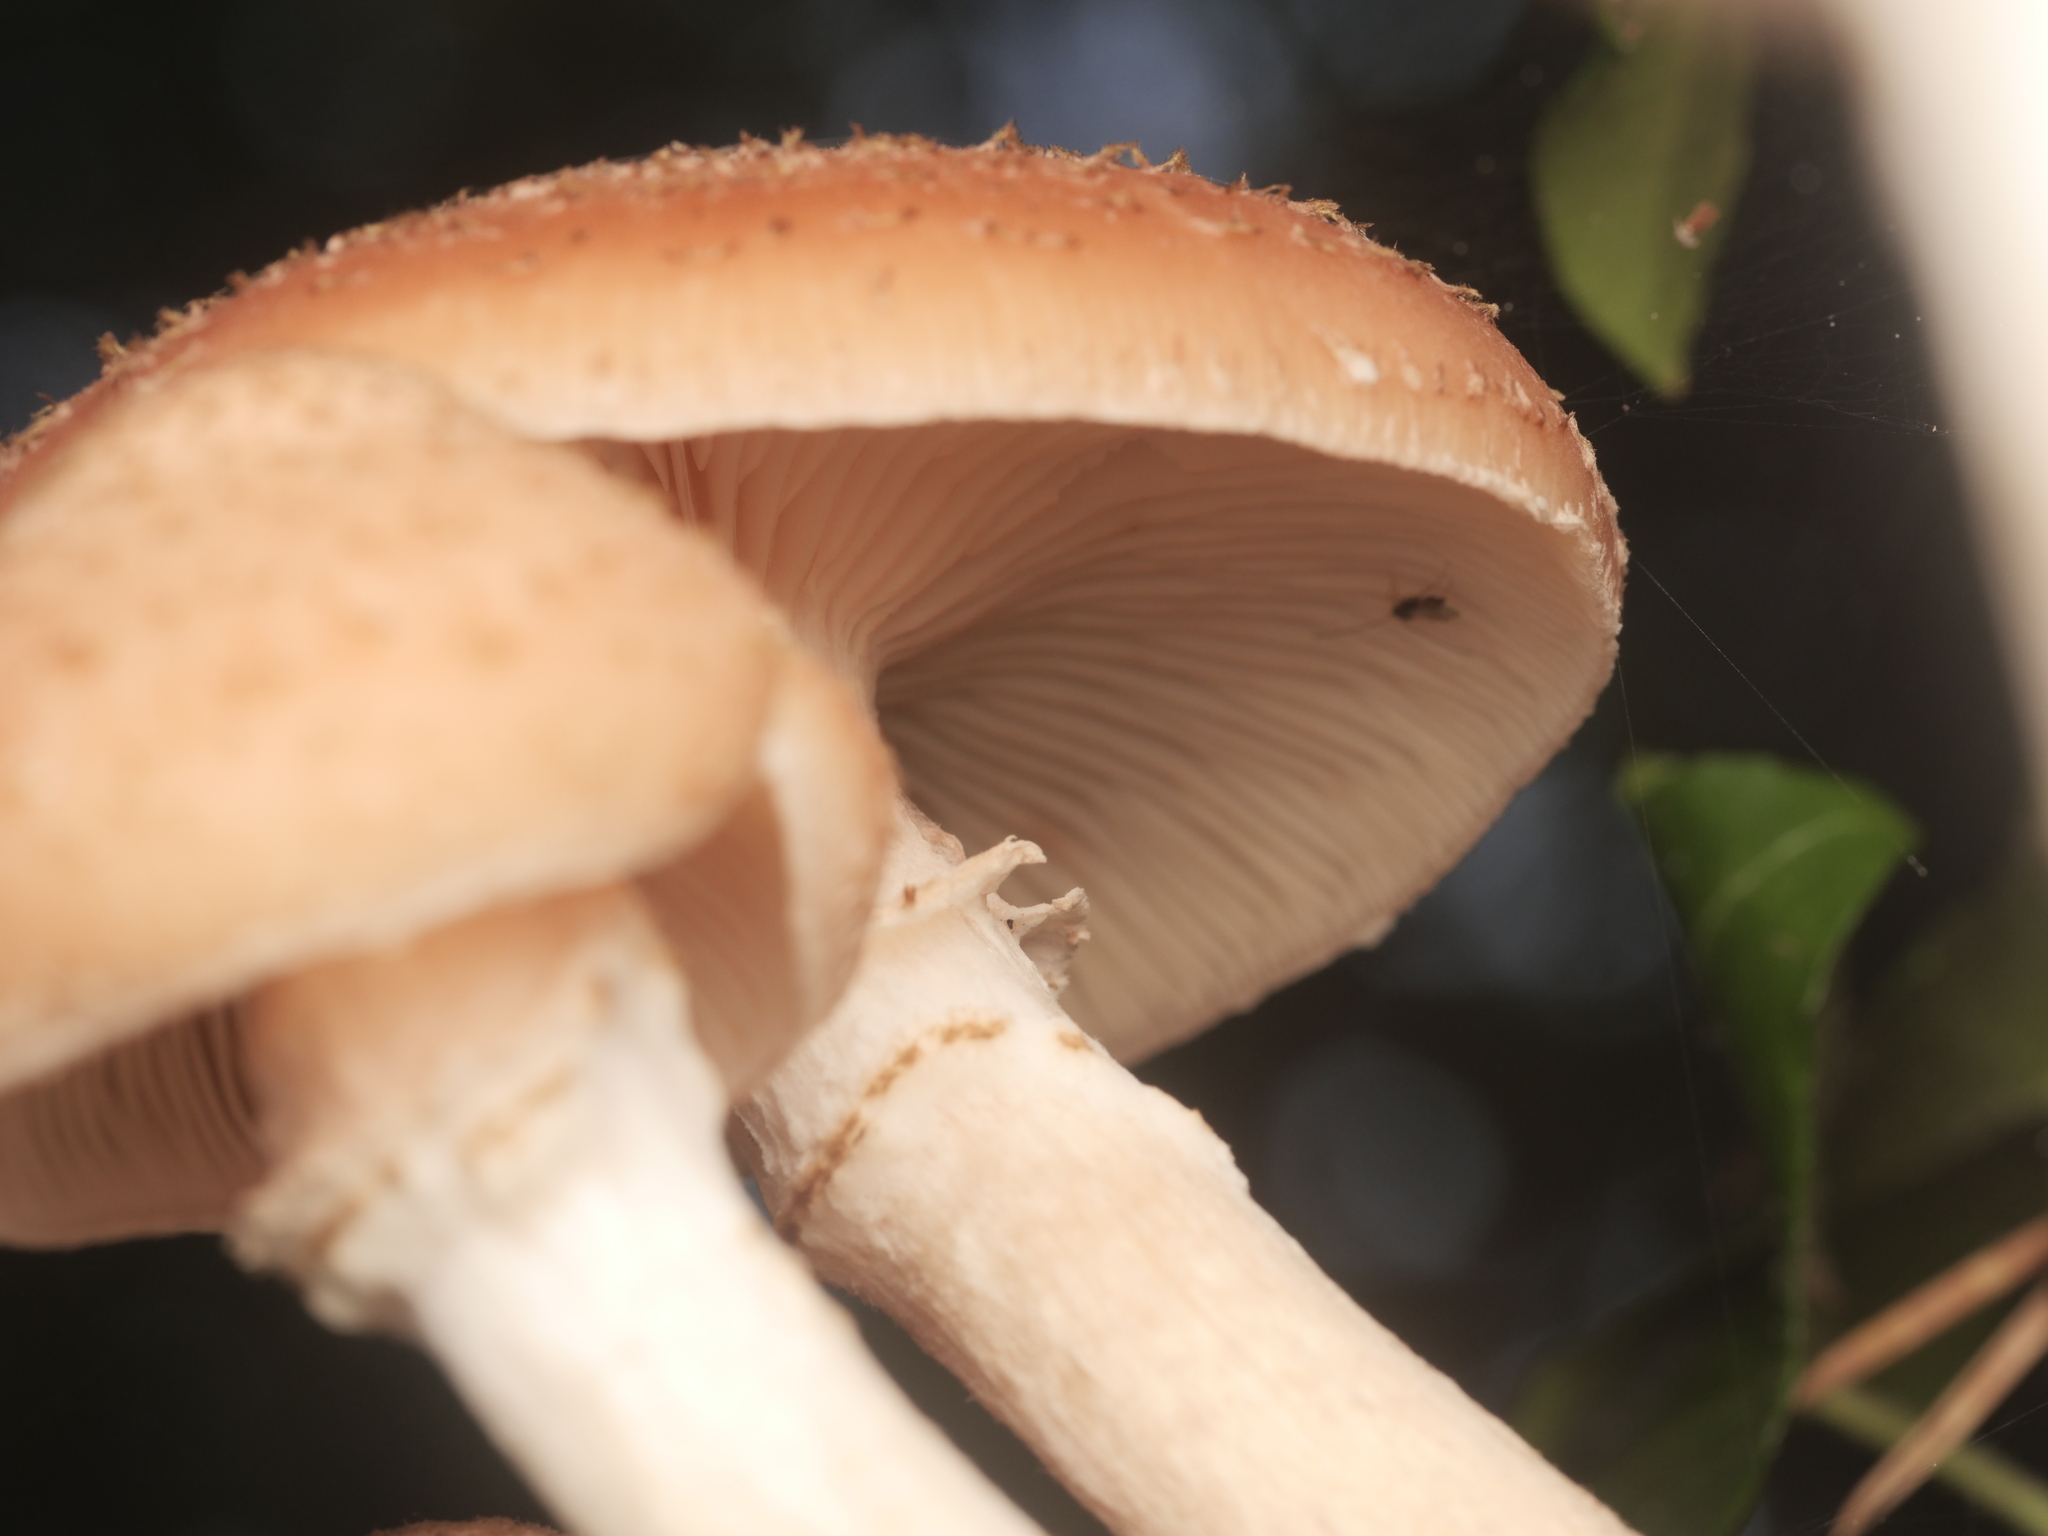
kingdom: Fungi
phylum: Basidiomycota
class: Agaricomycetes
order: Agaricales
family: Physalacriaceae
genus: Armillaria
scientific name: Armillaria ostoyae
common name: Dark honey fungus
